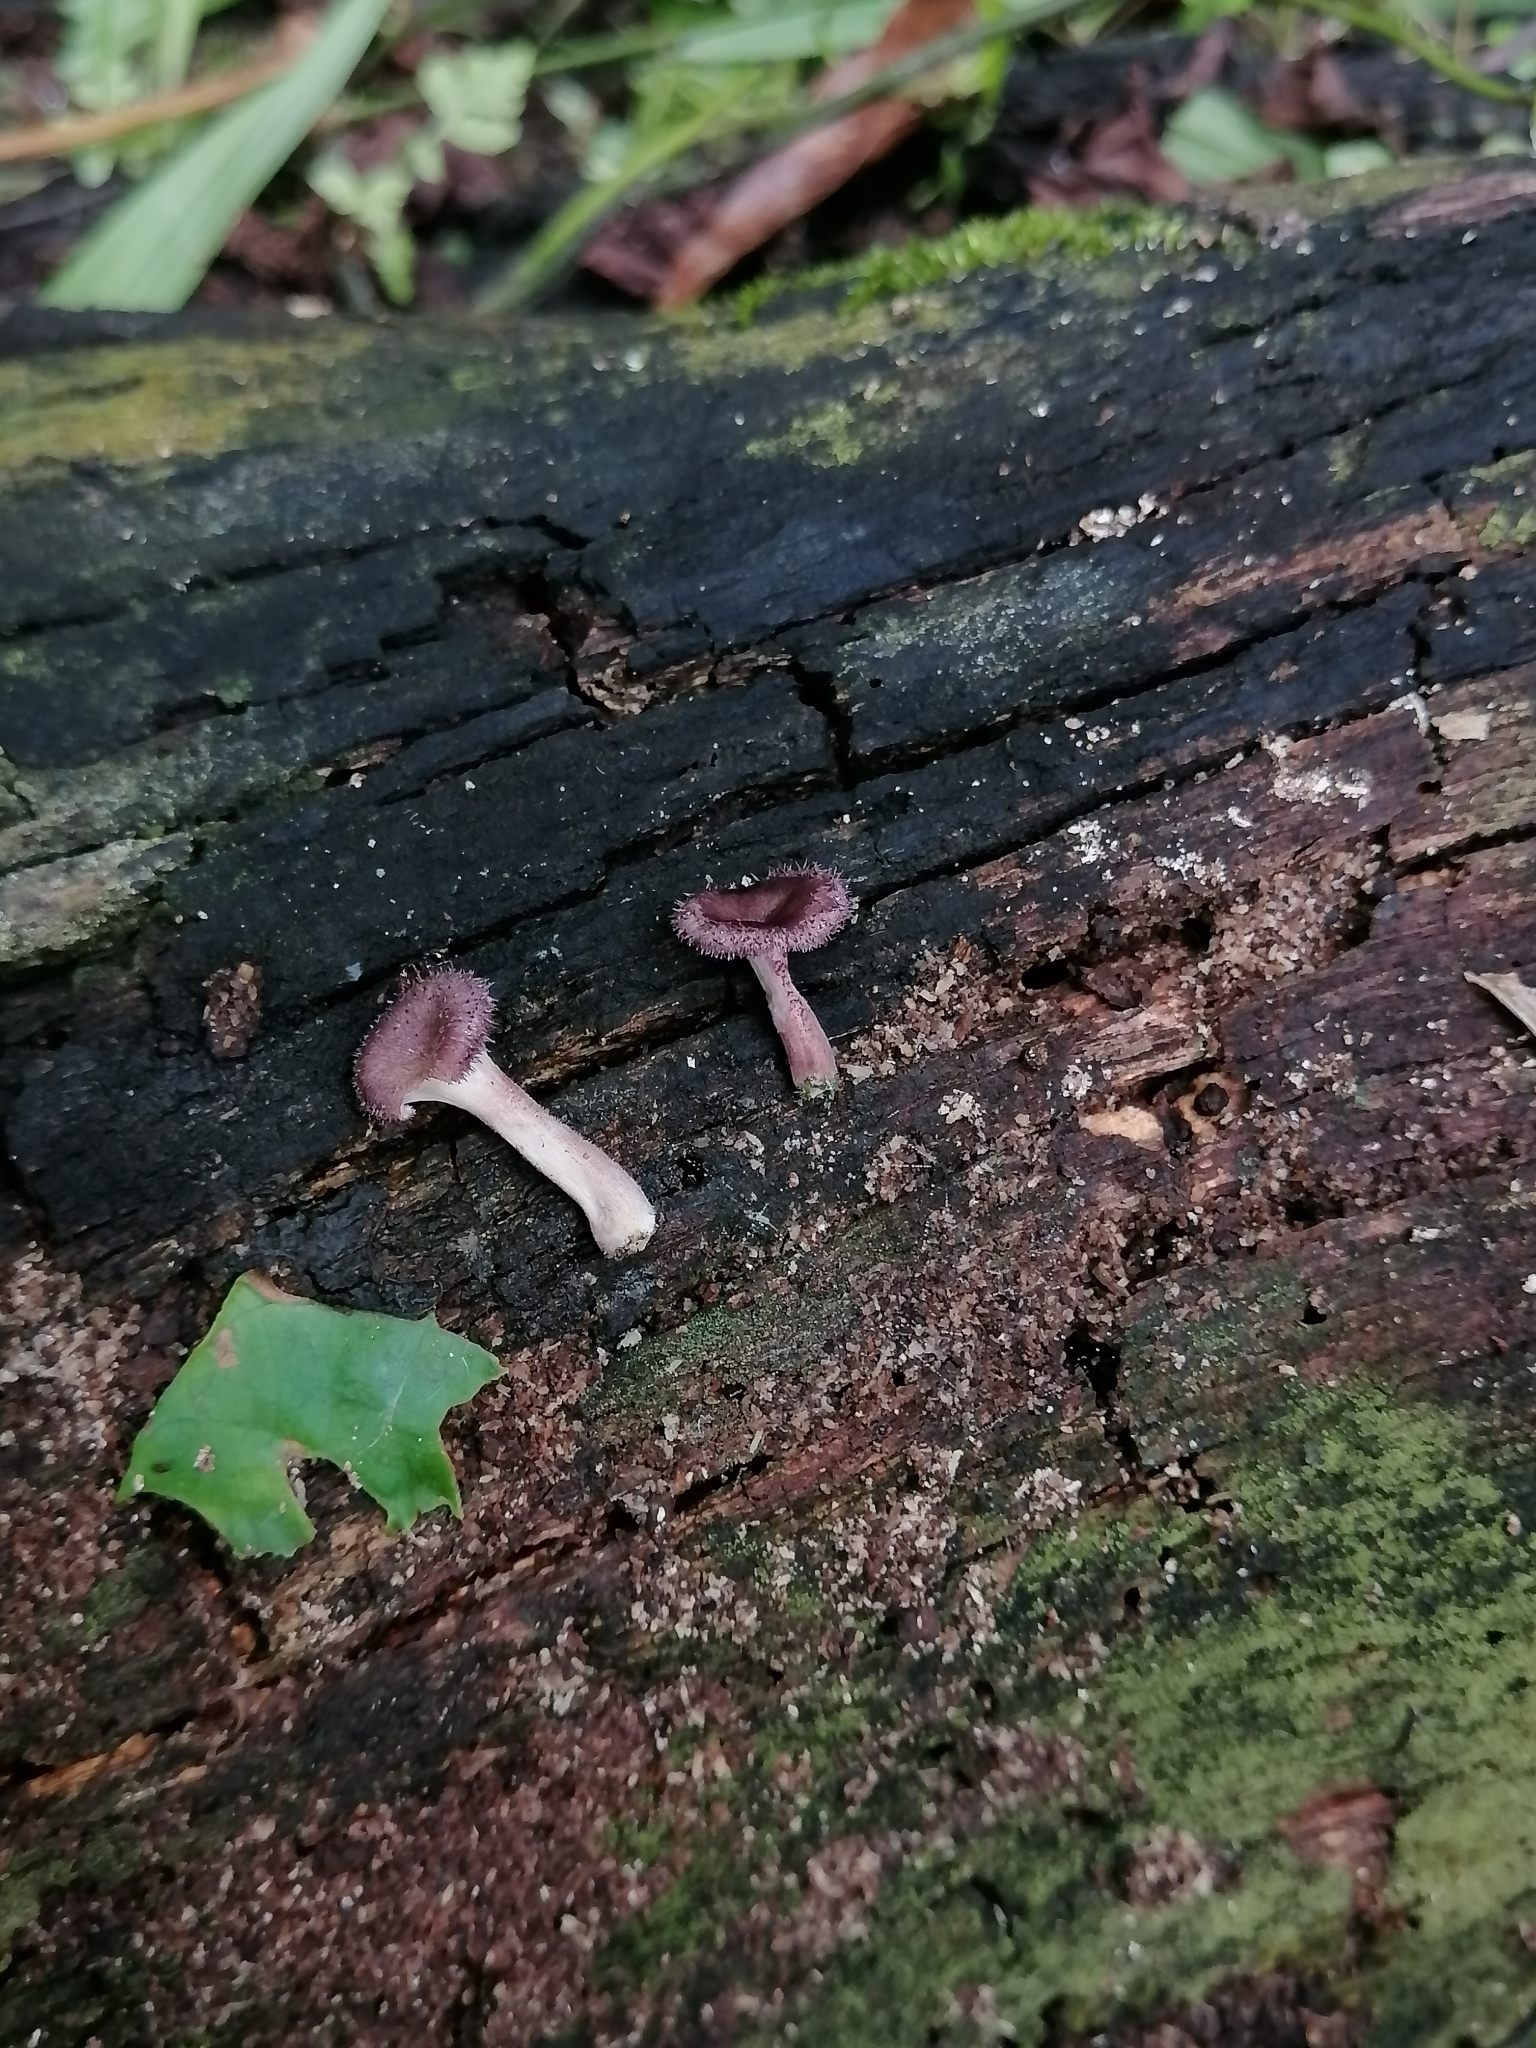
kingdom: Fungi
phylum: Basidiomycota
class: Agaricomycetes
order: Polyporales
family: Panaceae
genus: Panus
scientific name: Panus neostrigosus
